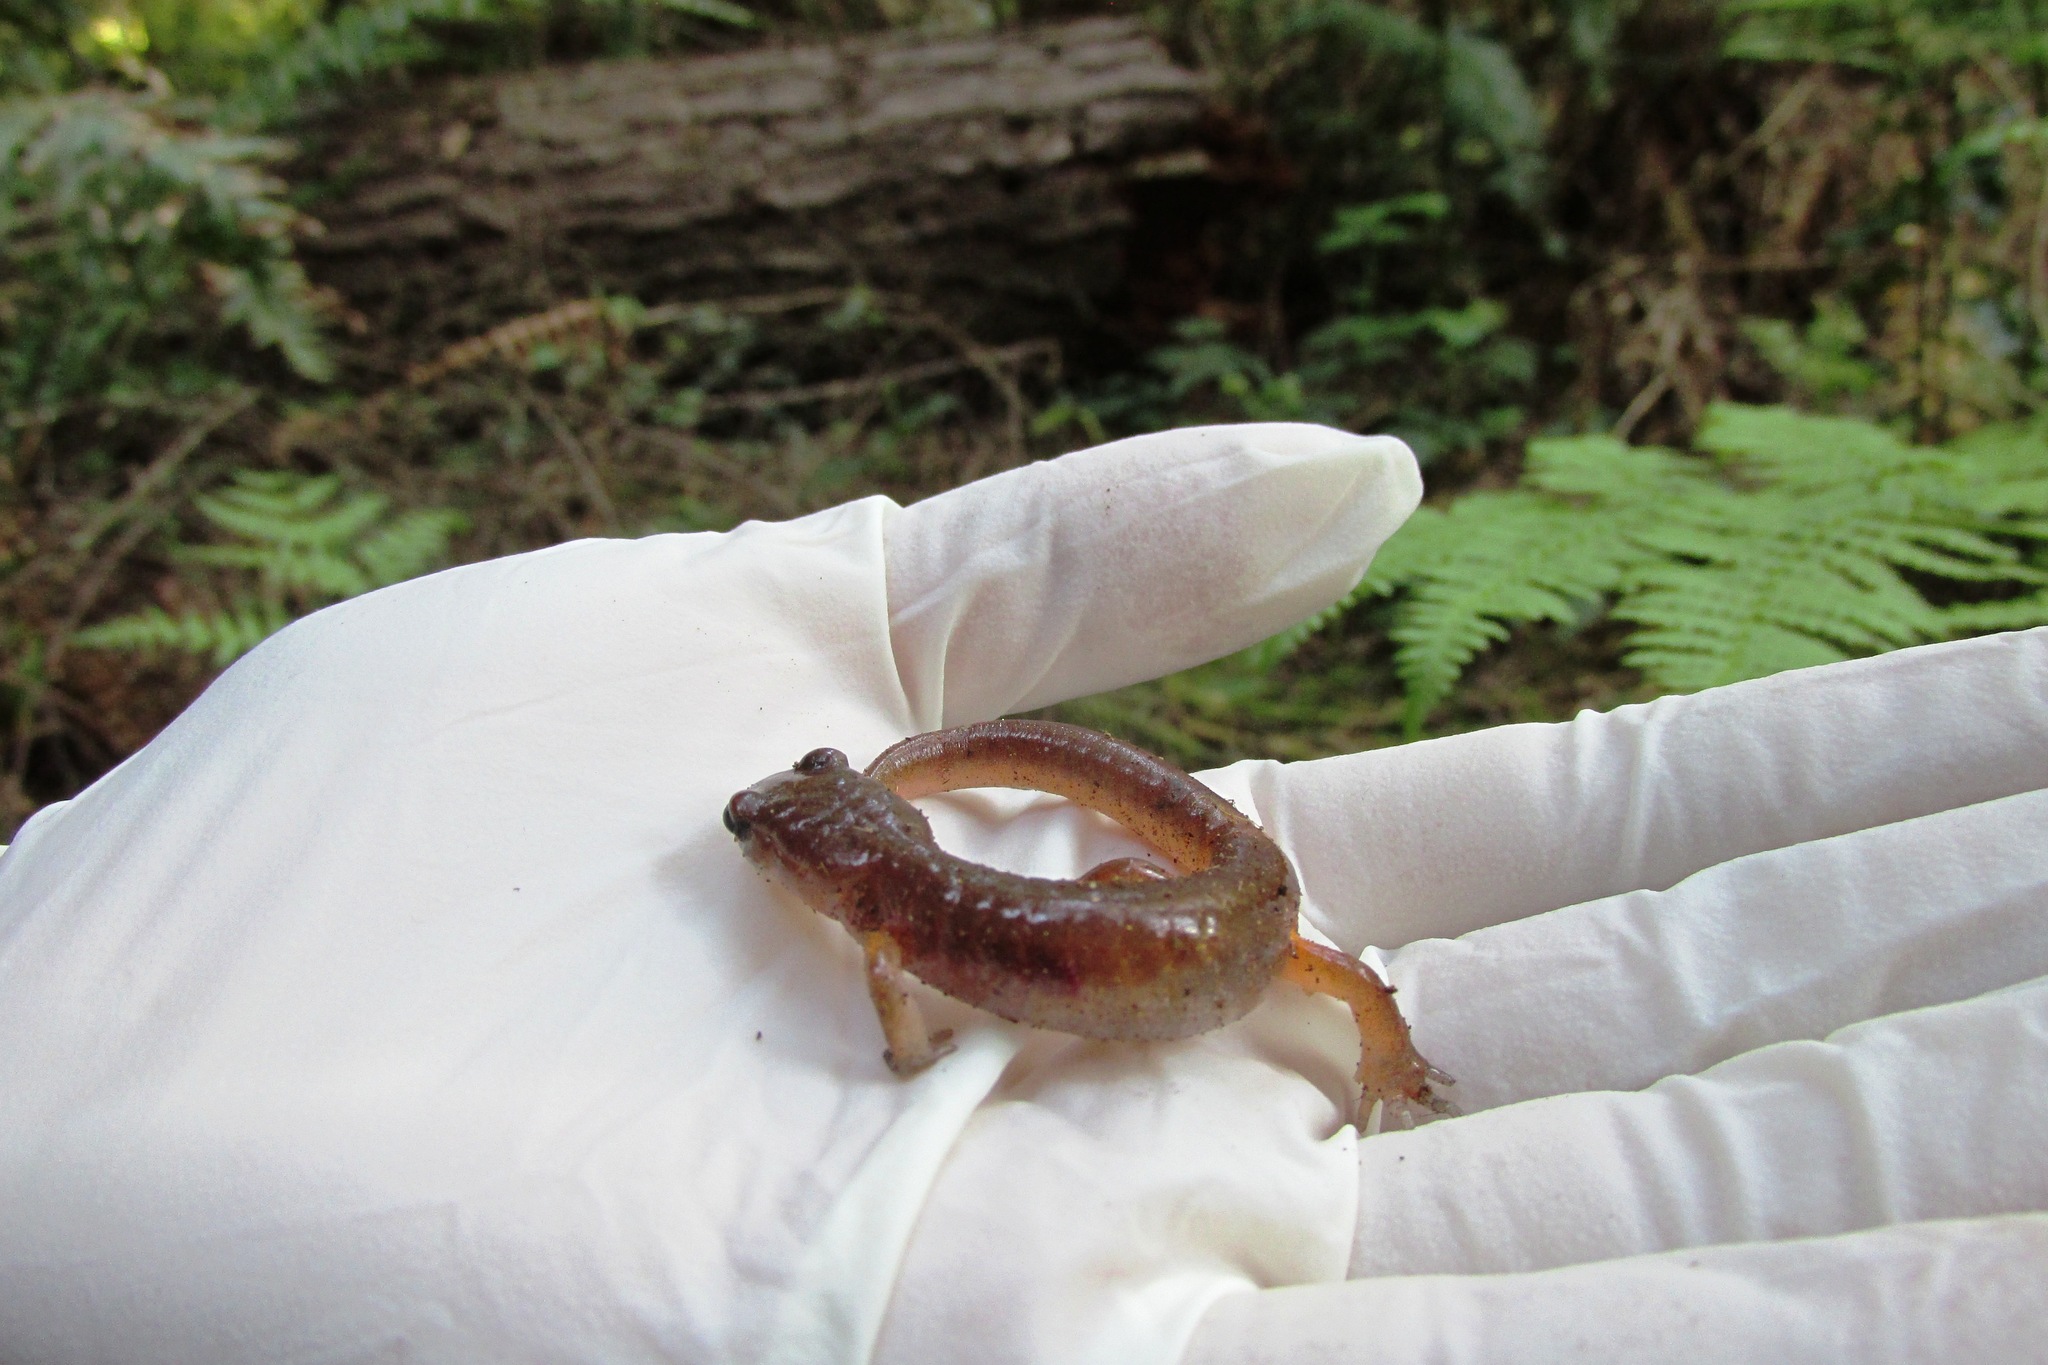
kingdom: Animalia
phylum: Chordata
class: Amphibia
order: Caudata
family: Plethodontidae
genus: Ensatina
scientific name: Ensatina eschscholtzii
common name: Ensatina
